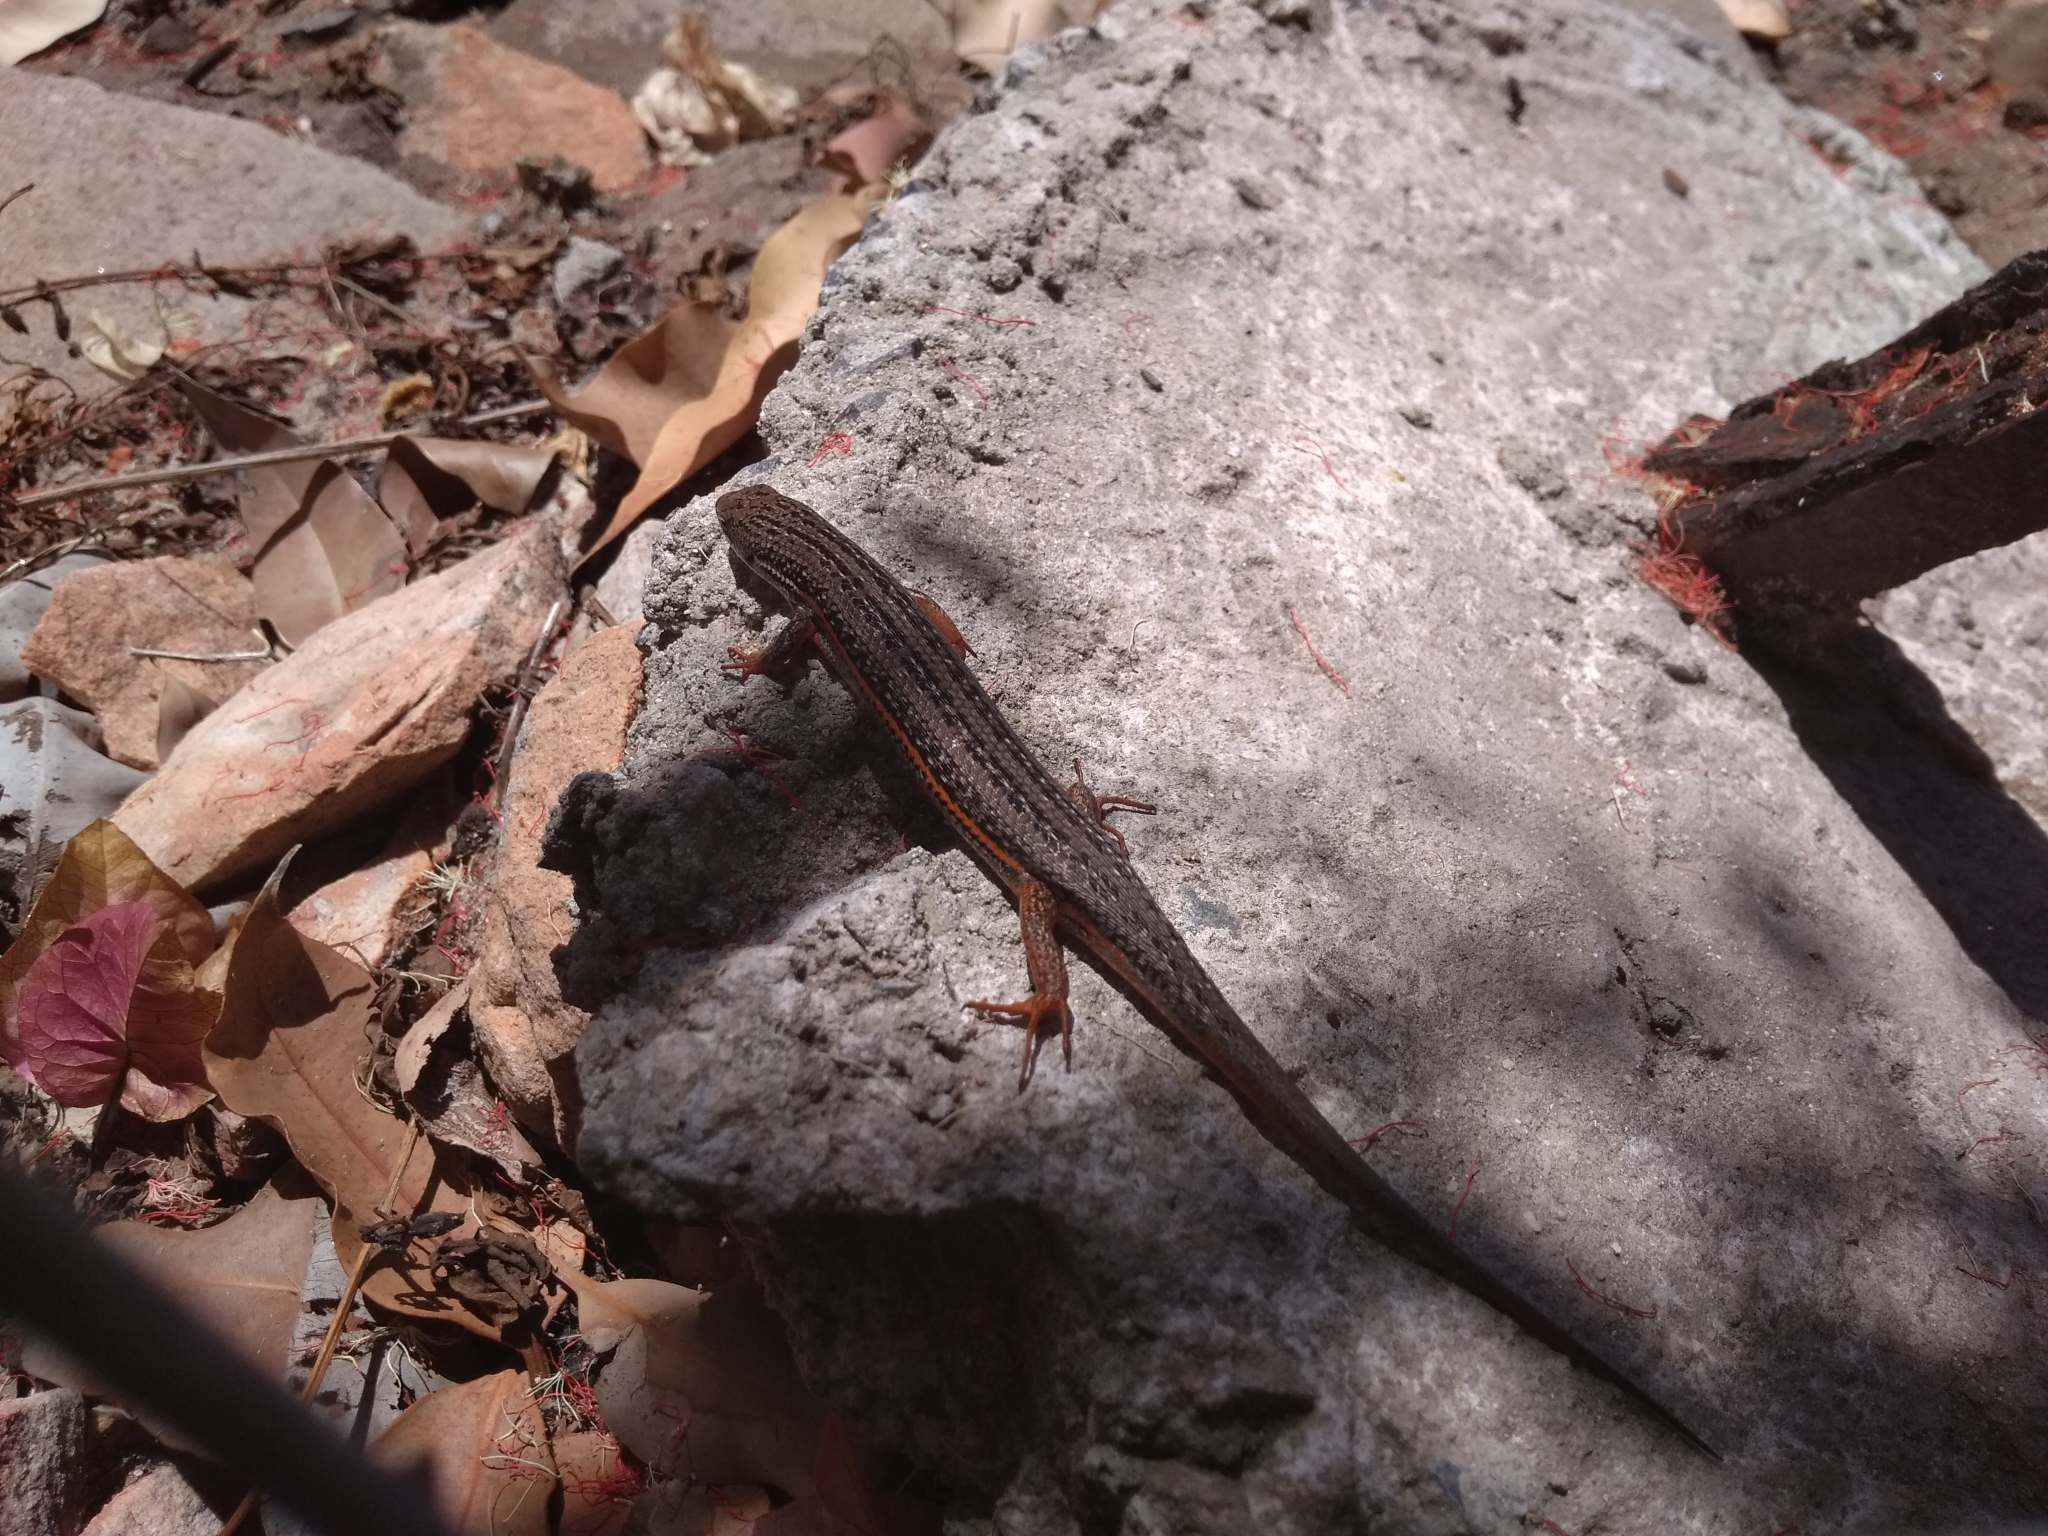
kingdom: Animalia
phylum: Chordata
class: Squamata
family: Scincidae
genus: Trachylepis
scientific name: Trachylepis homalocephala
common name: Red-sided skink
